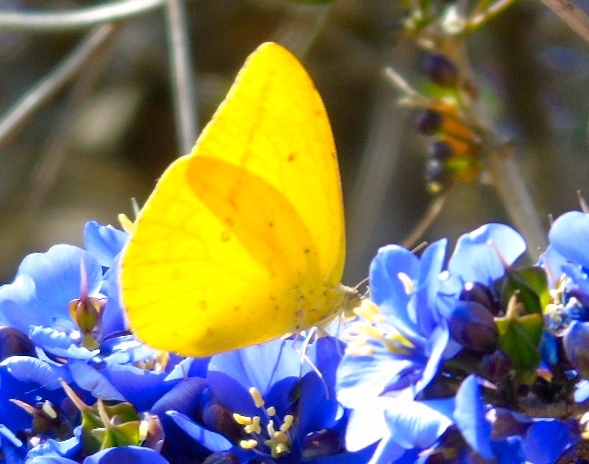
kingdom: Animalia
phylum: Arthropoda
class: Insecta
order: Lepidoptera
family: Pieridae
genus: Phoebis
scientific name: Phoebis agarithe
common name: Large orange sulphur
